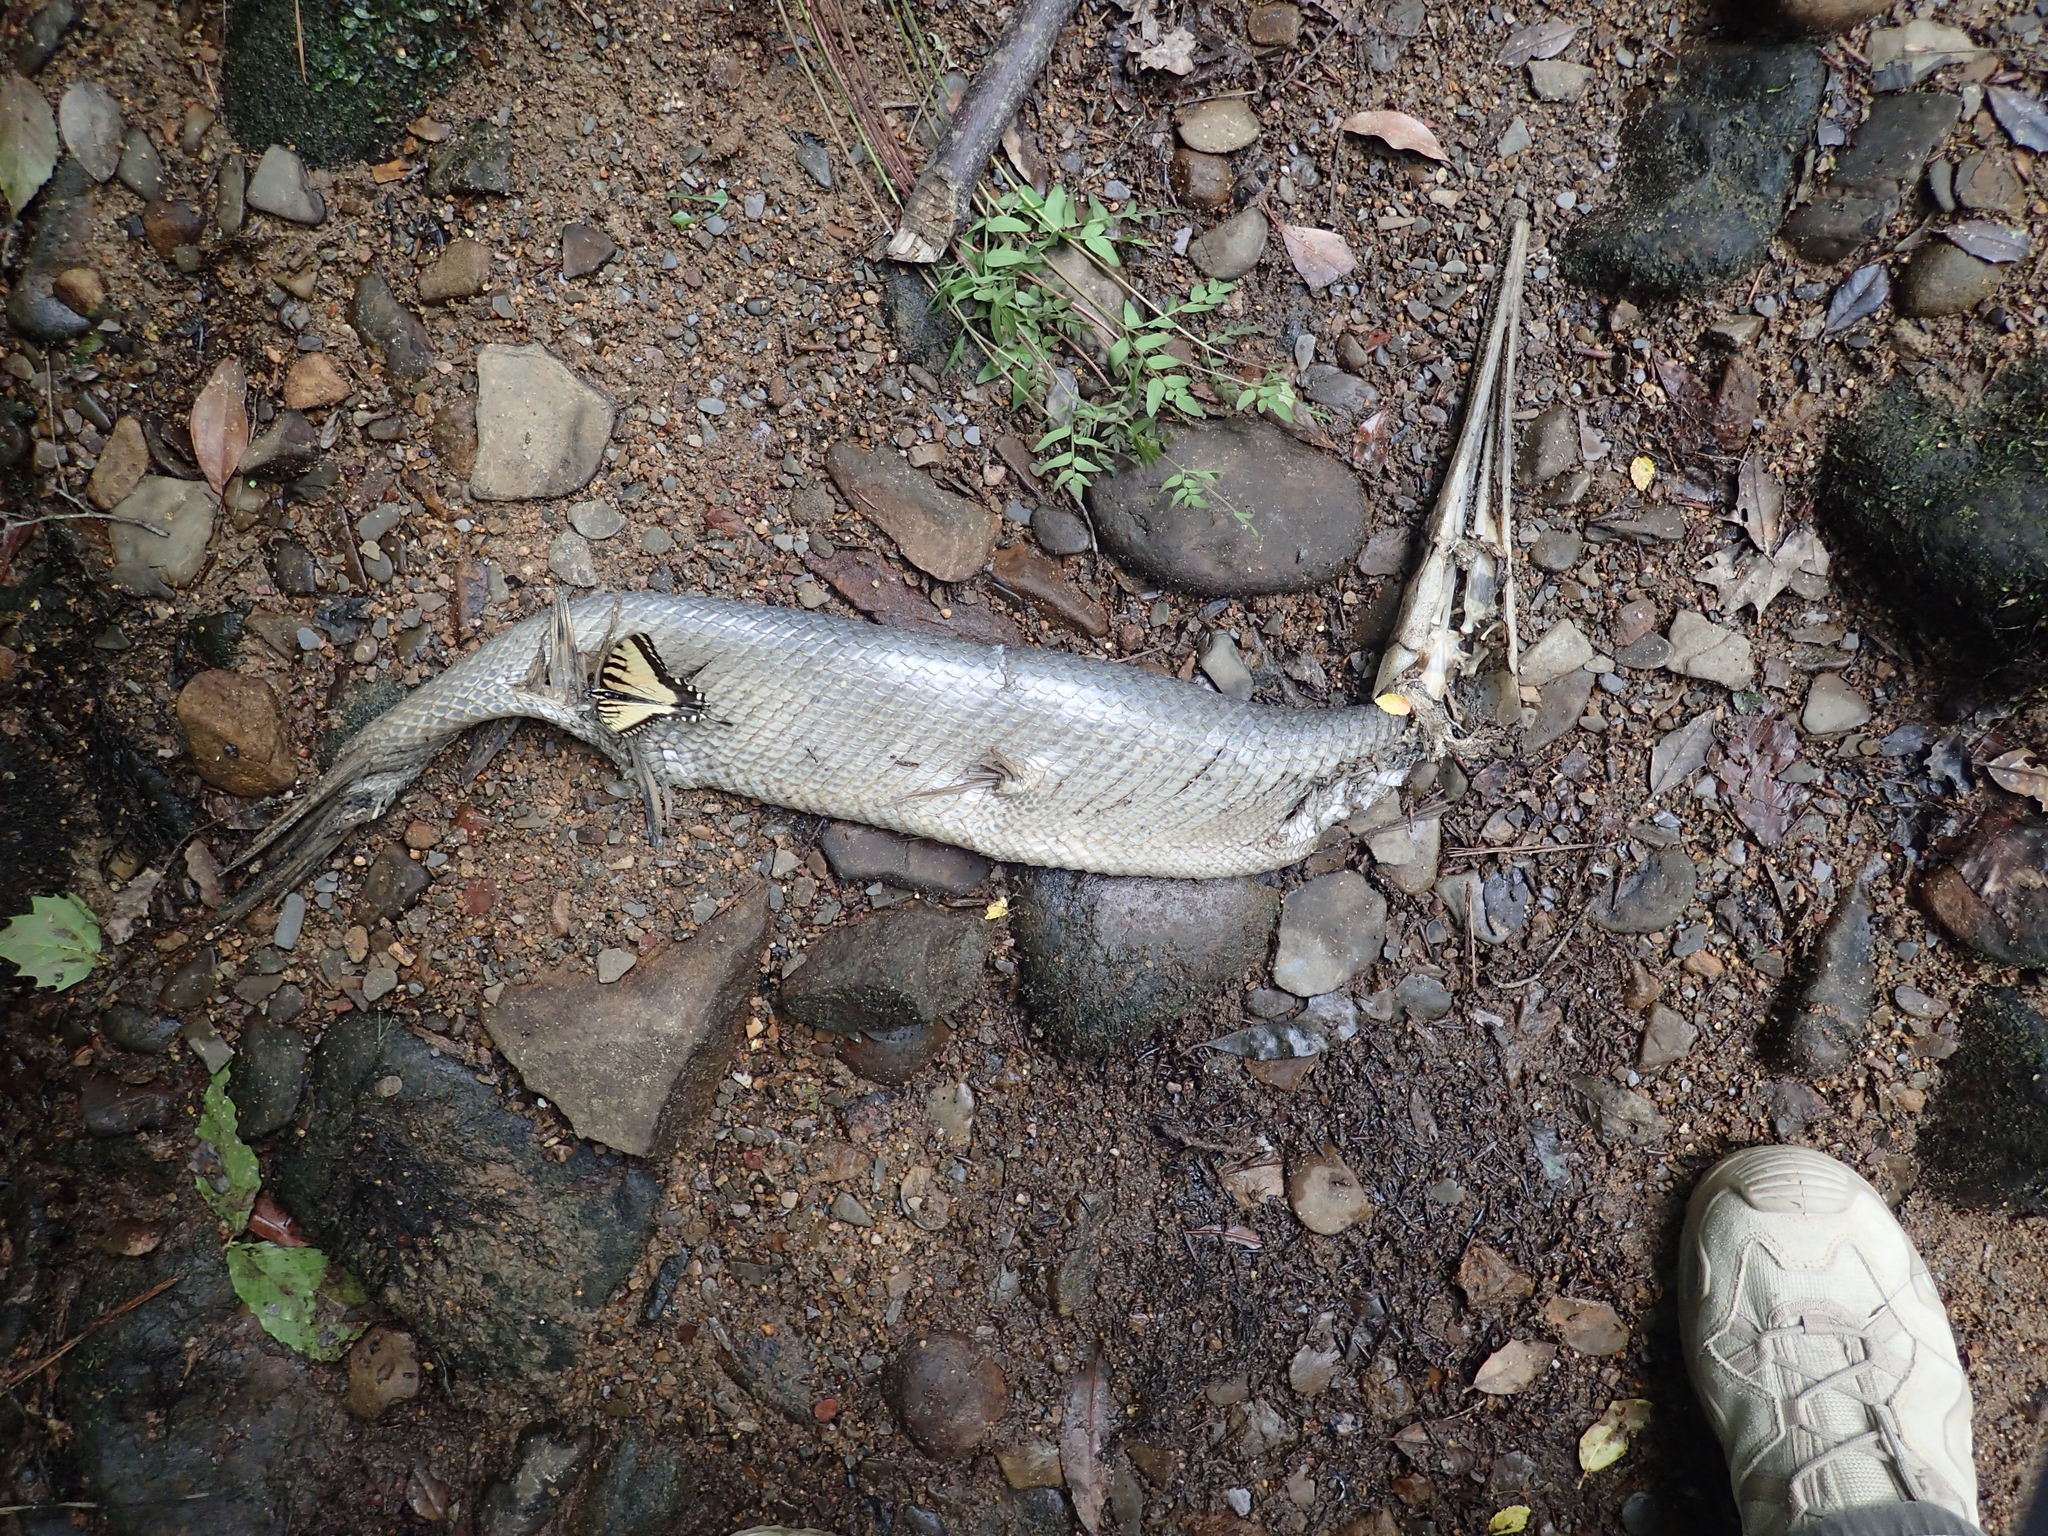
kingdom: Animalia
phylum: Chordata
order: Lepisosteiformes
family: Lepisosteidae
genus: Lepisosteus
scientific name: Lepisosteus osseus
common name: Longnose gar
